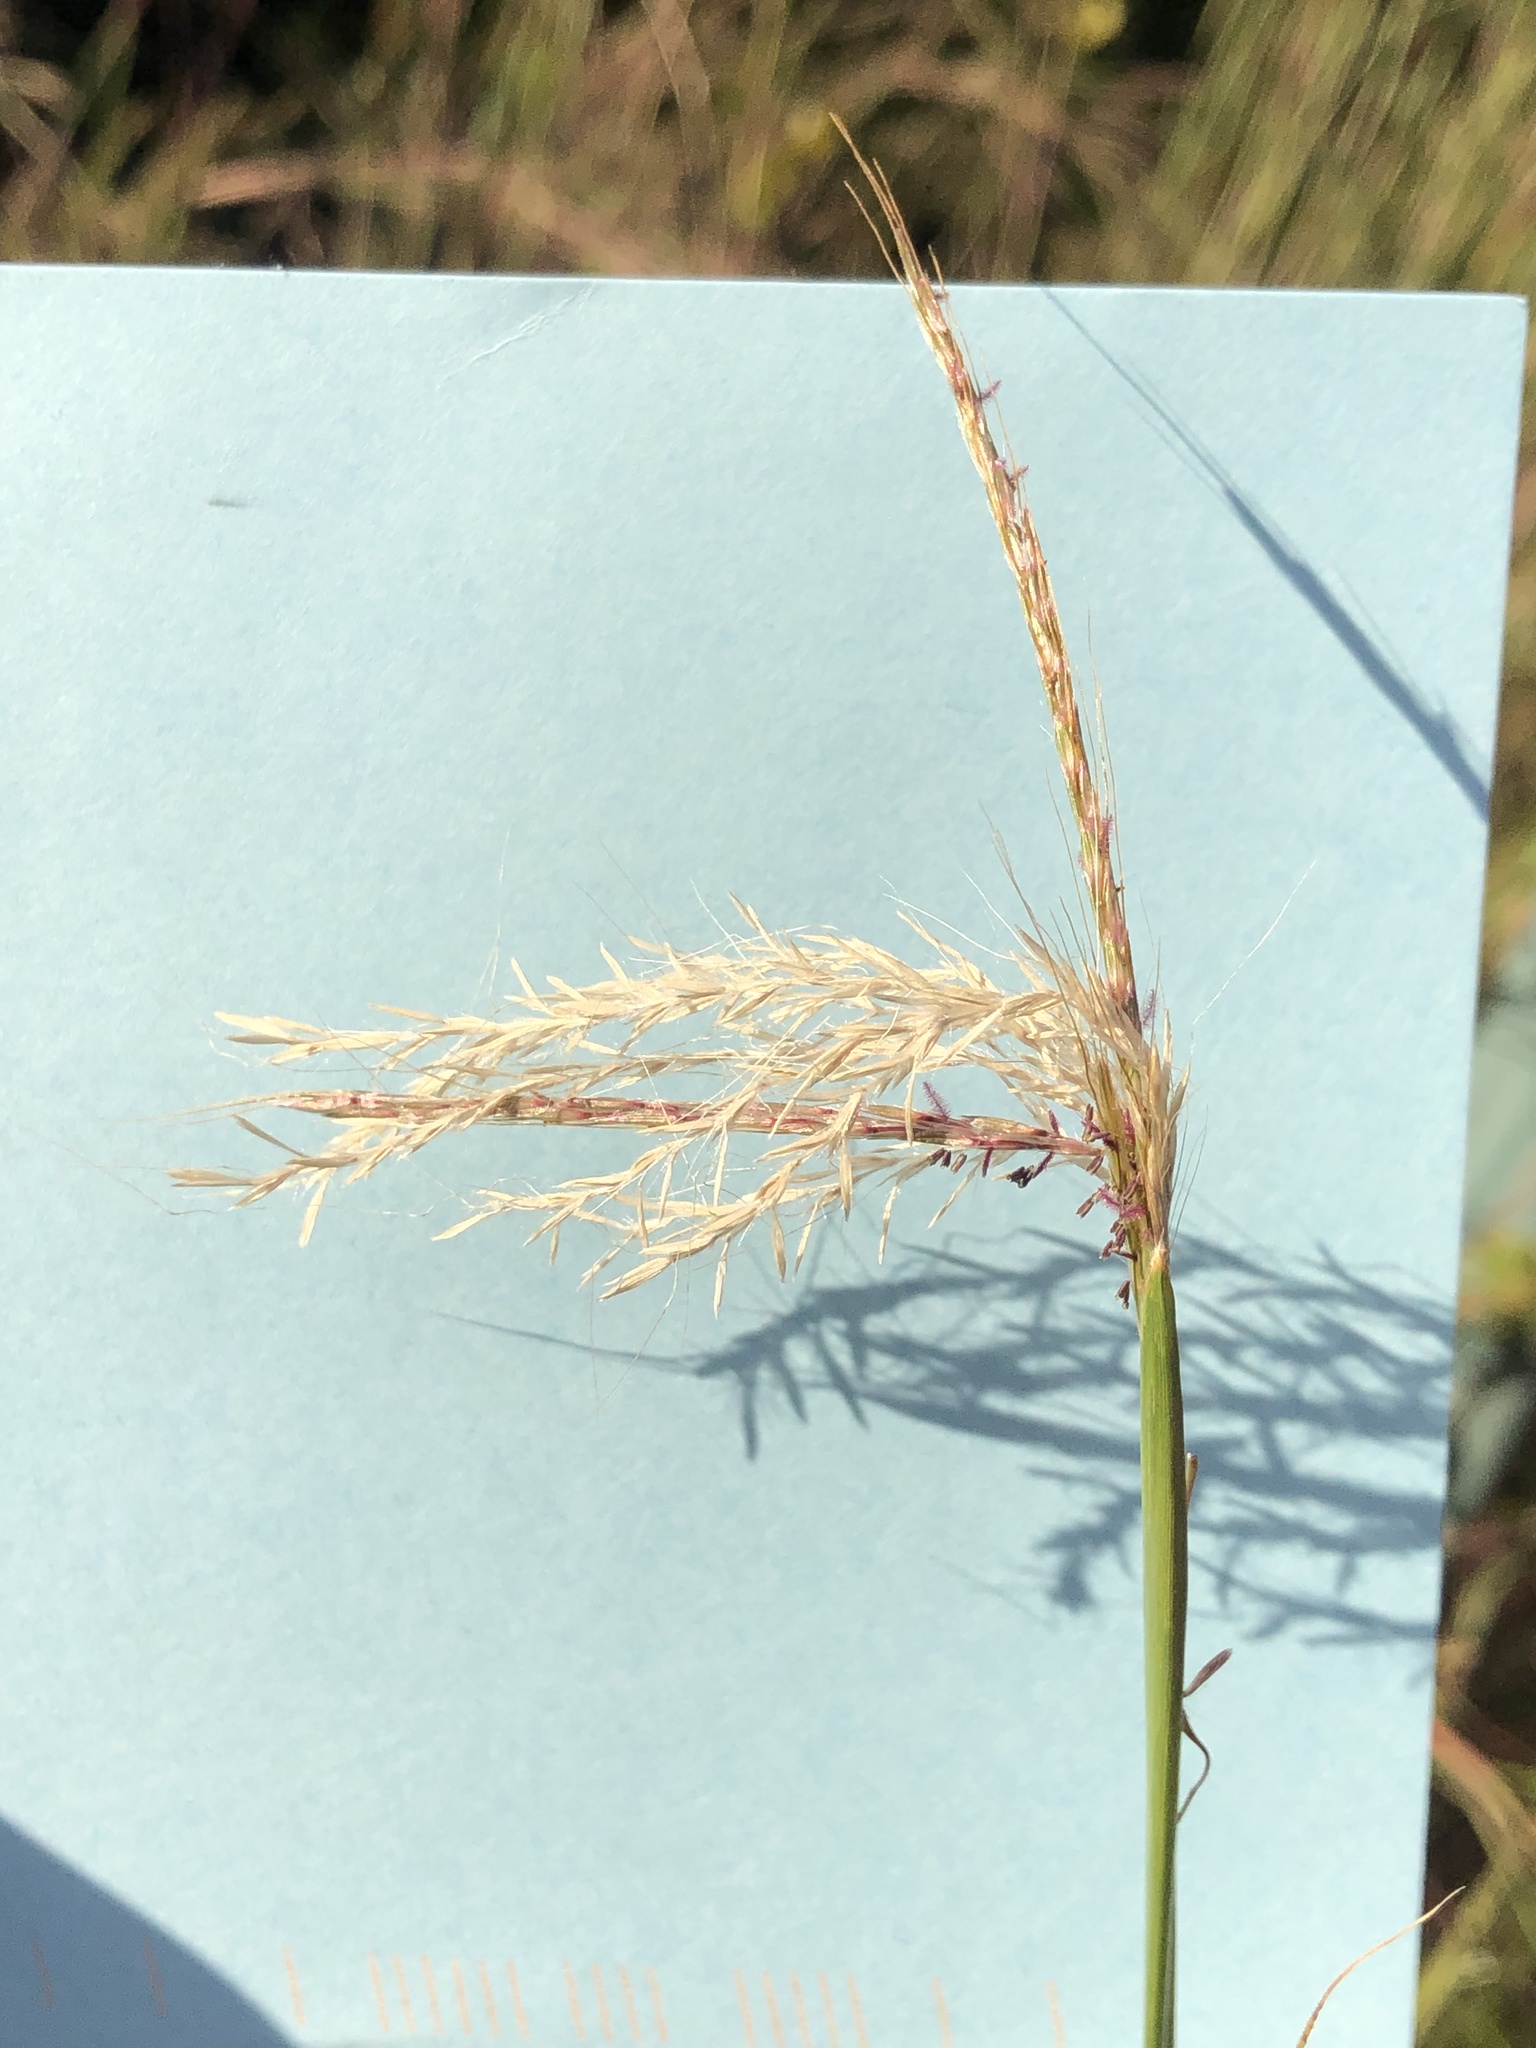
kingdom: Plantae
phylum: Tracheophyta
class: Liliopsida
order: Poales
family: Poaceae
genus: Bothriochloa
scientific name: Bothriochloa ischaemum
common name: Yellow bluestem
